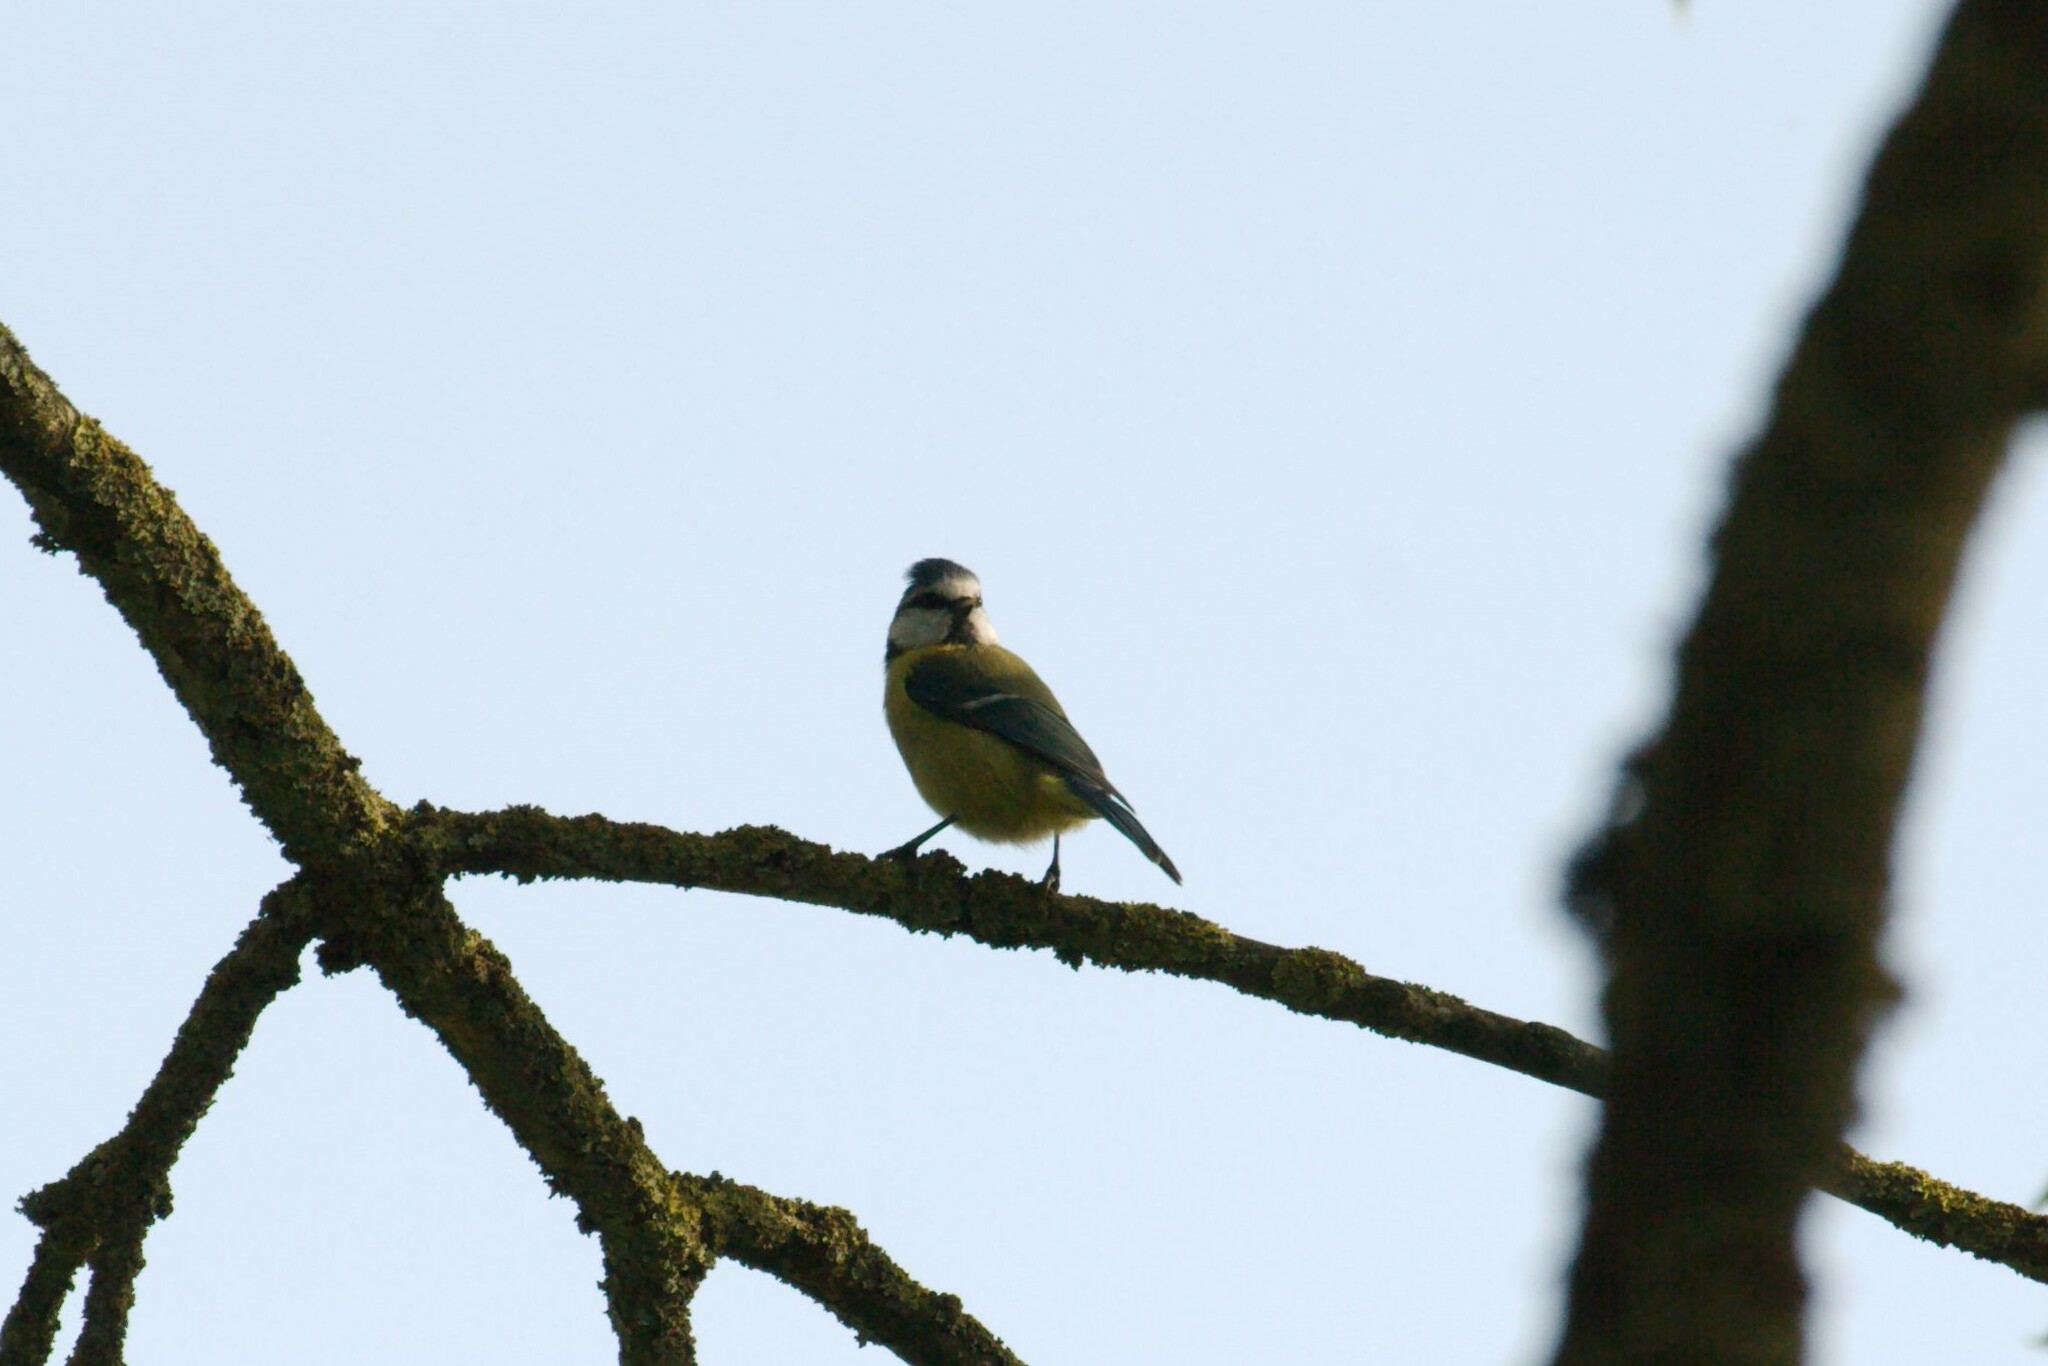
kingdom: Animalia
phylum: Chordata
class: Aves
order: Passeriformes
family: Paridae
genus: Cyanistes
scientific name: Cyanistes caeruleus
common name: Eurasian blue tit
